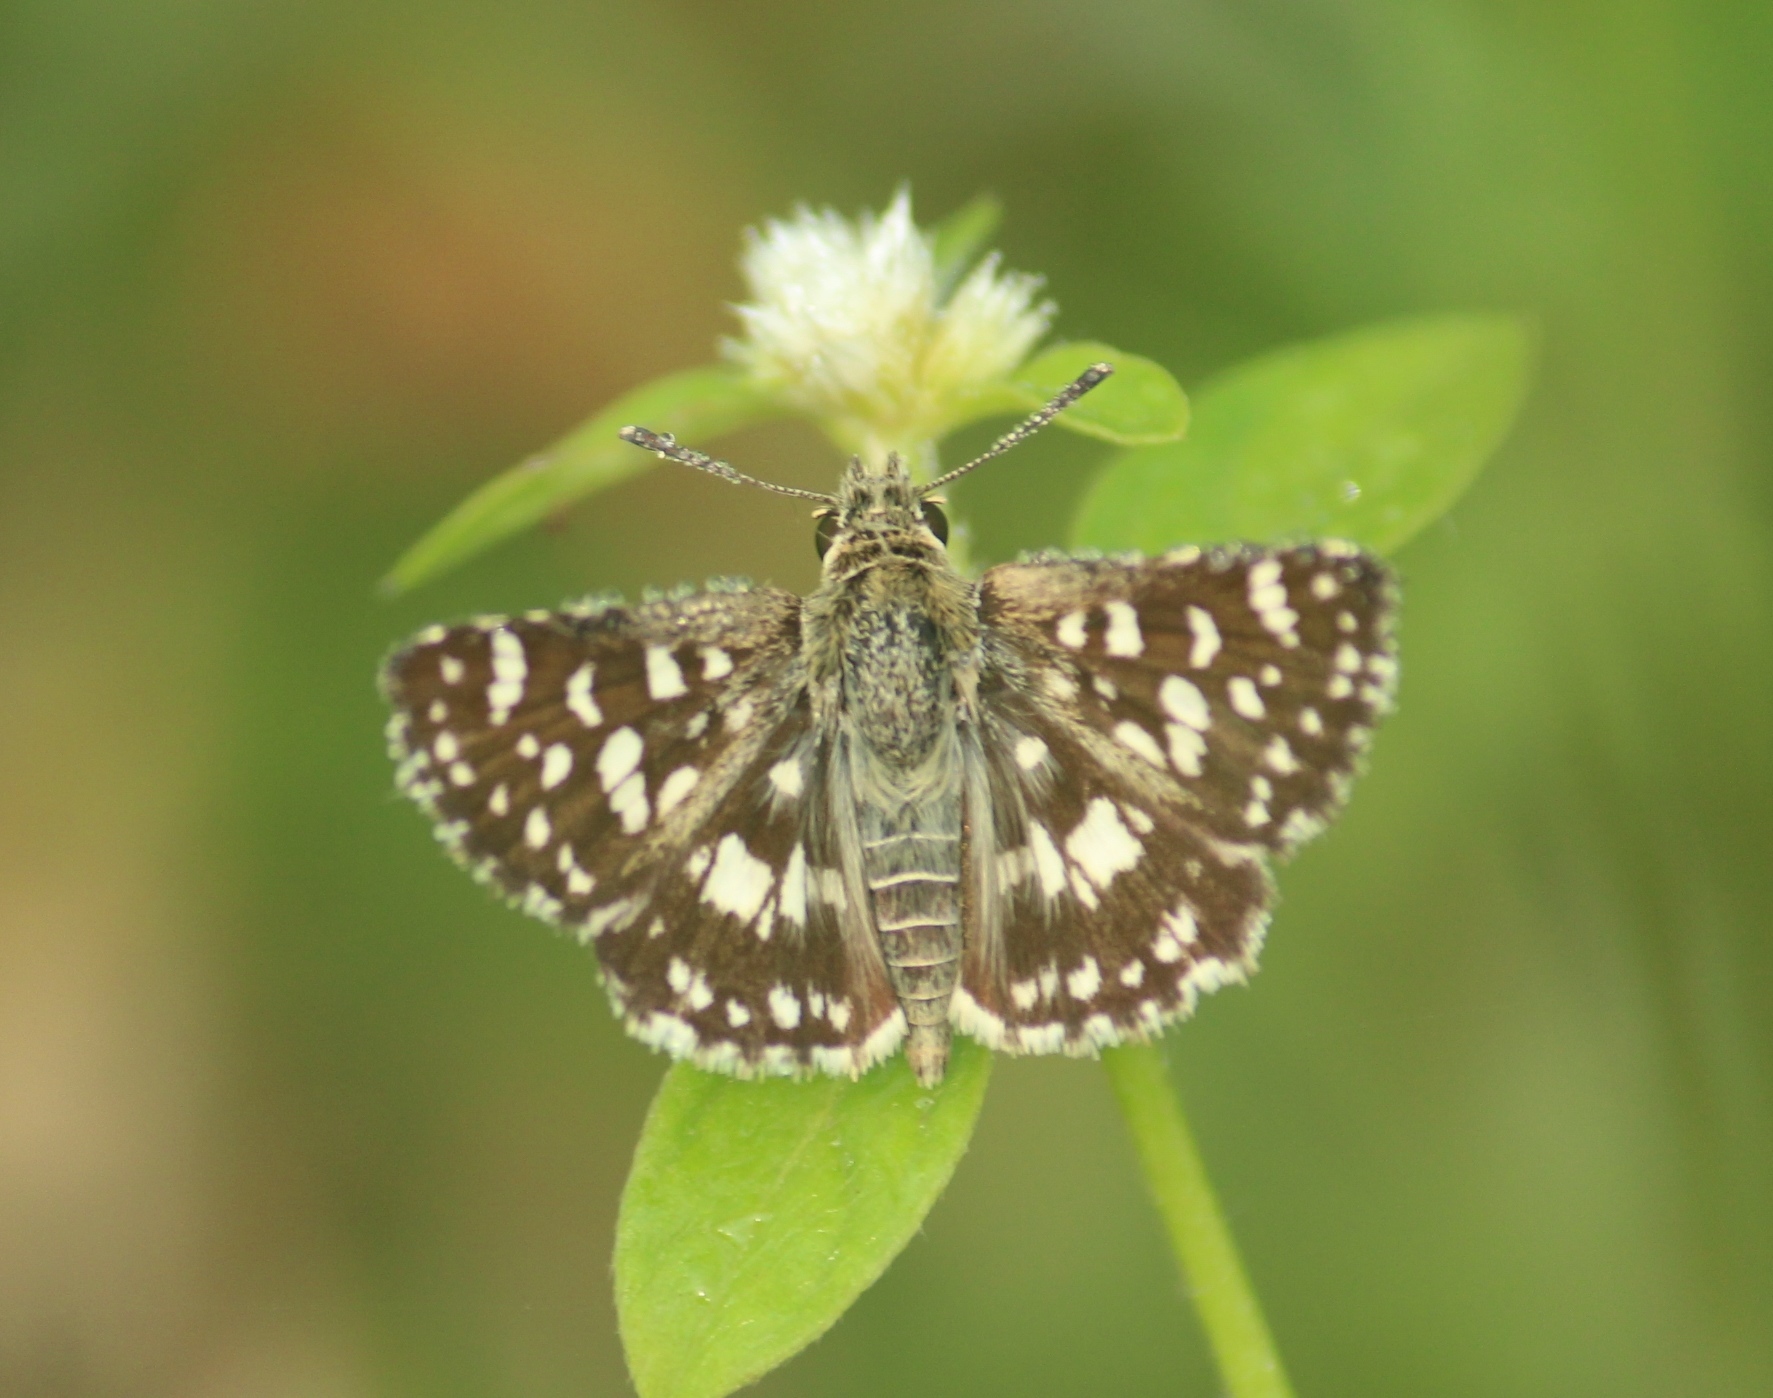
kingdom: Animalia
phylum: Arthropoda
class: Insecta
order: Lepidoptera
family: Hesperiidae
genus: Spialia
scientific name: Spialia galba
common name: Indian skipper
